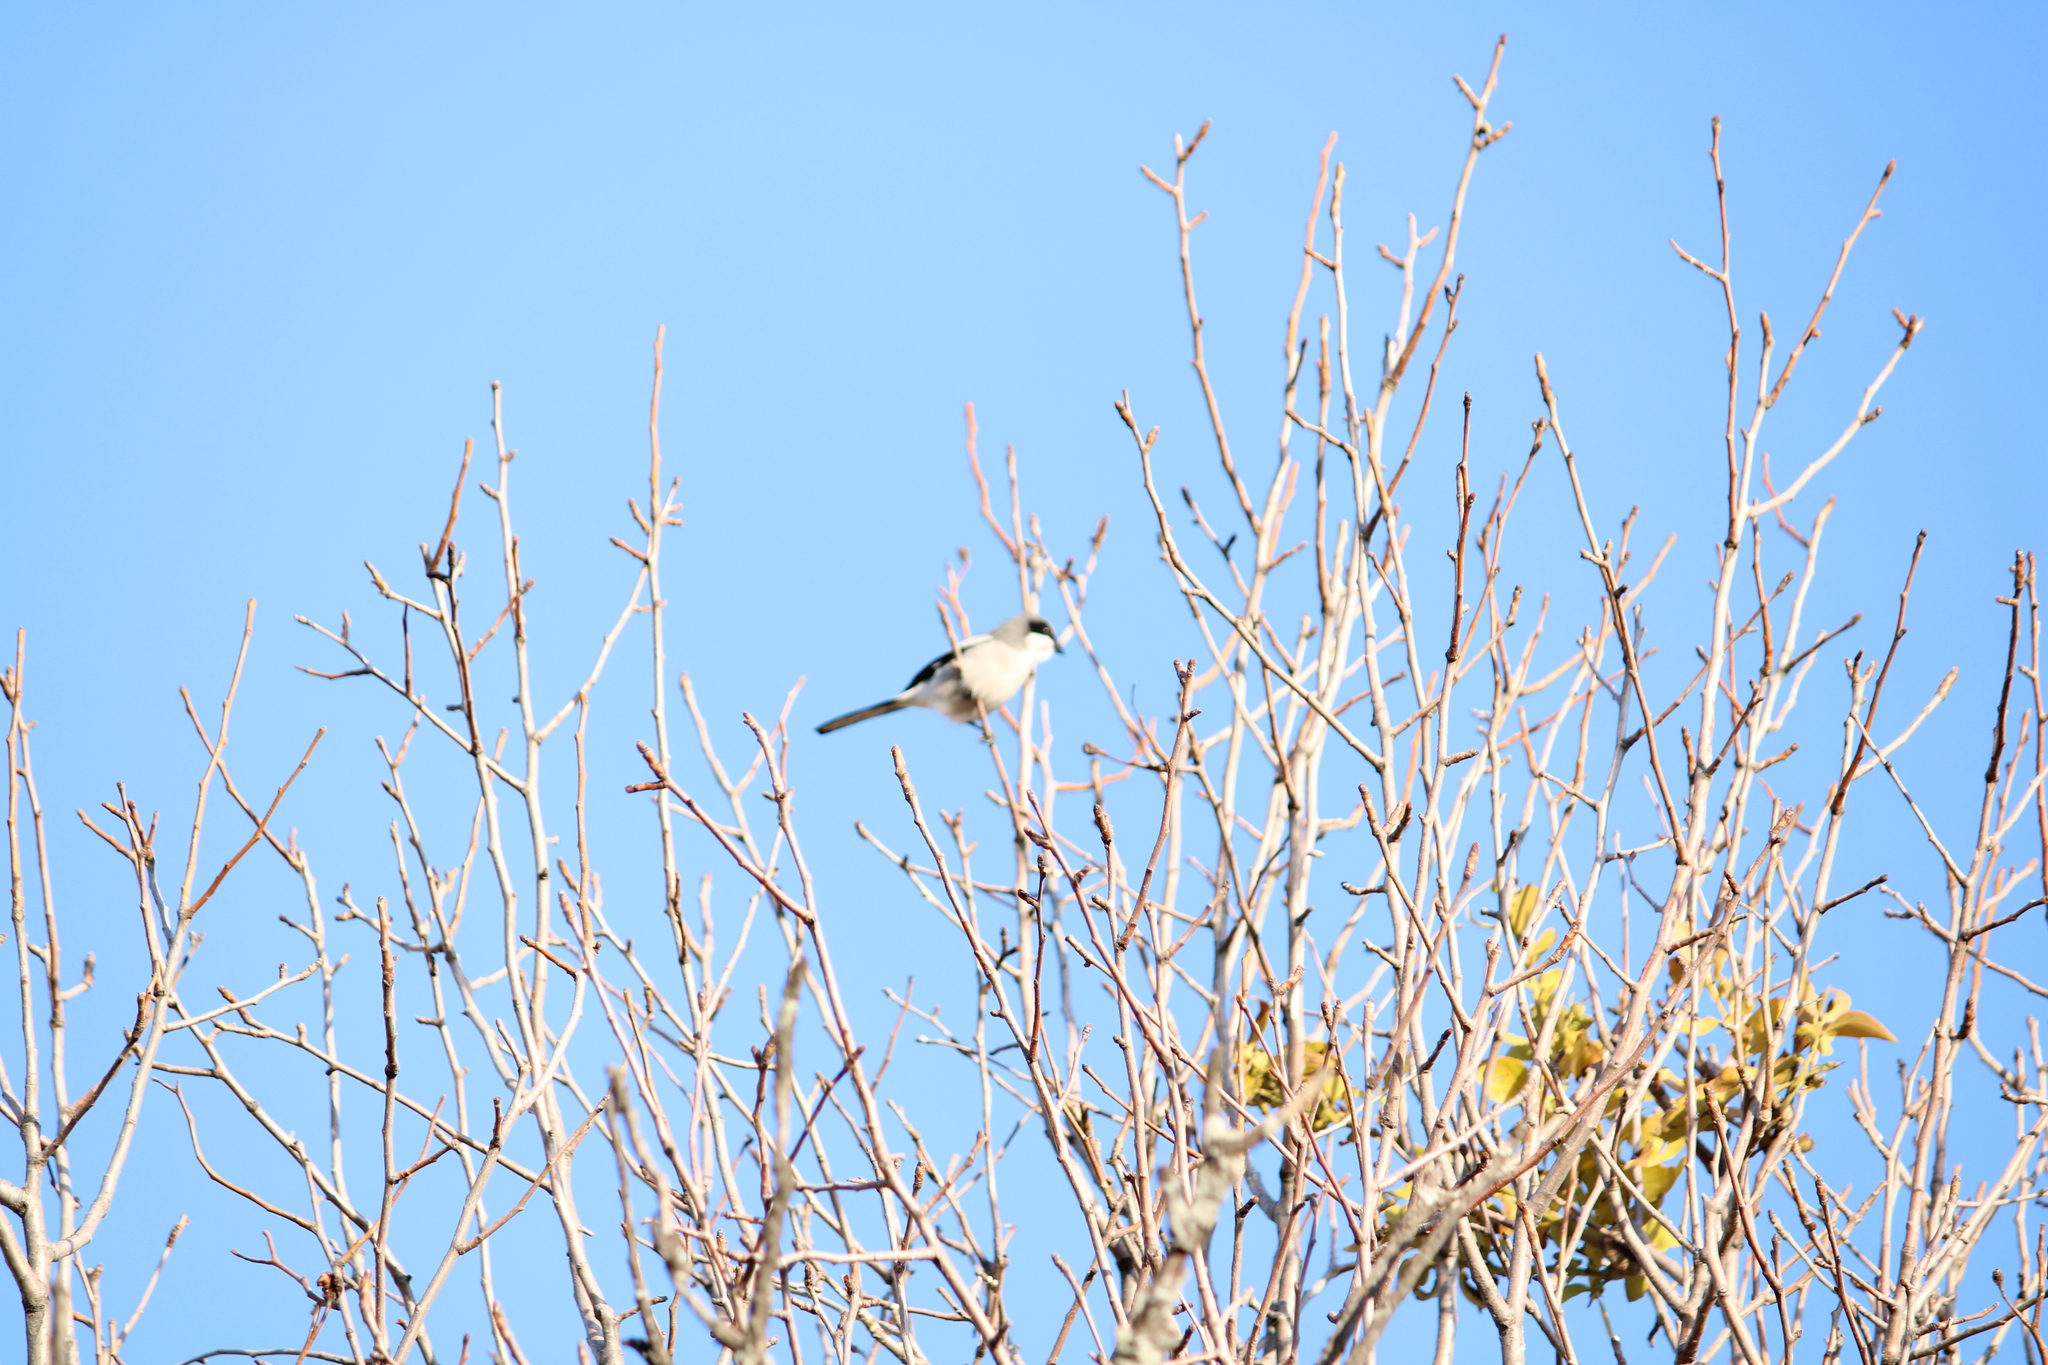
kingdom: Animalia
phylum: Chordata
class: Aves
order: Passeriformes
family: Laniidae
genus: Lanius
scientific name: Lanius ludovicianus
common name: Loggerhead shrike
